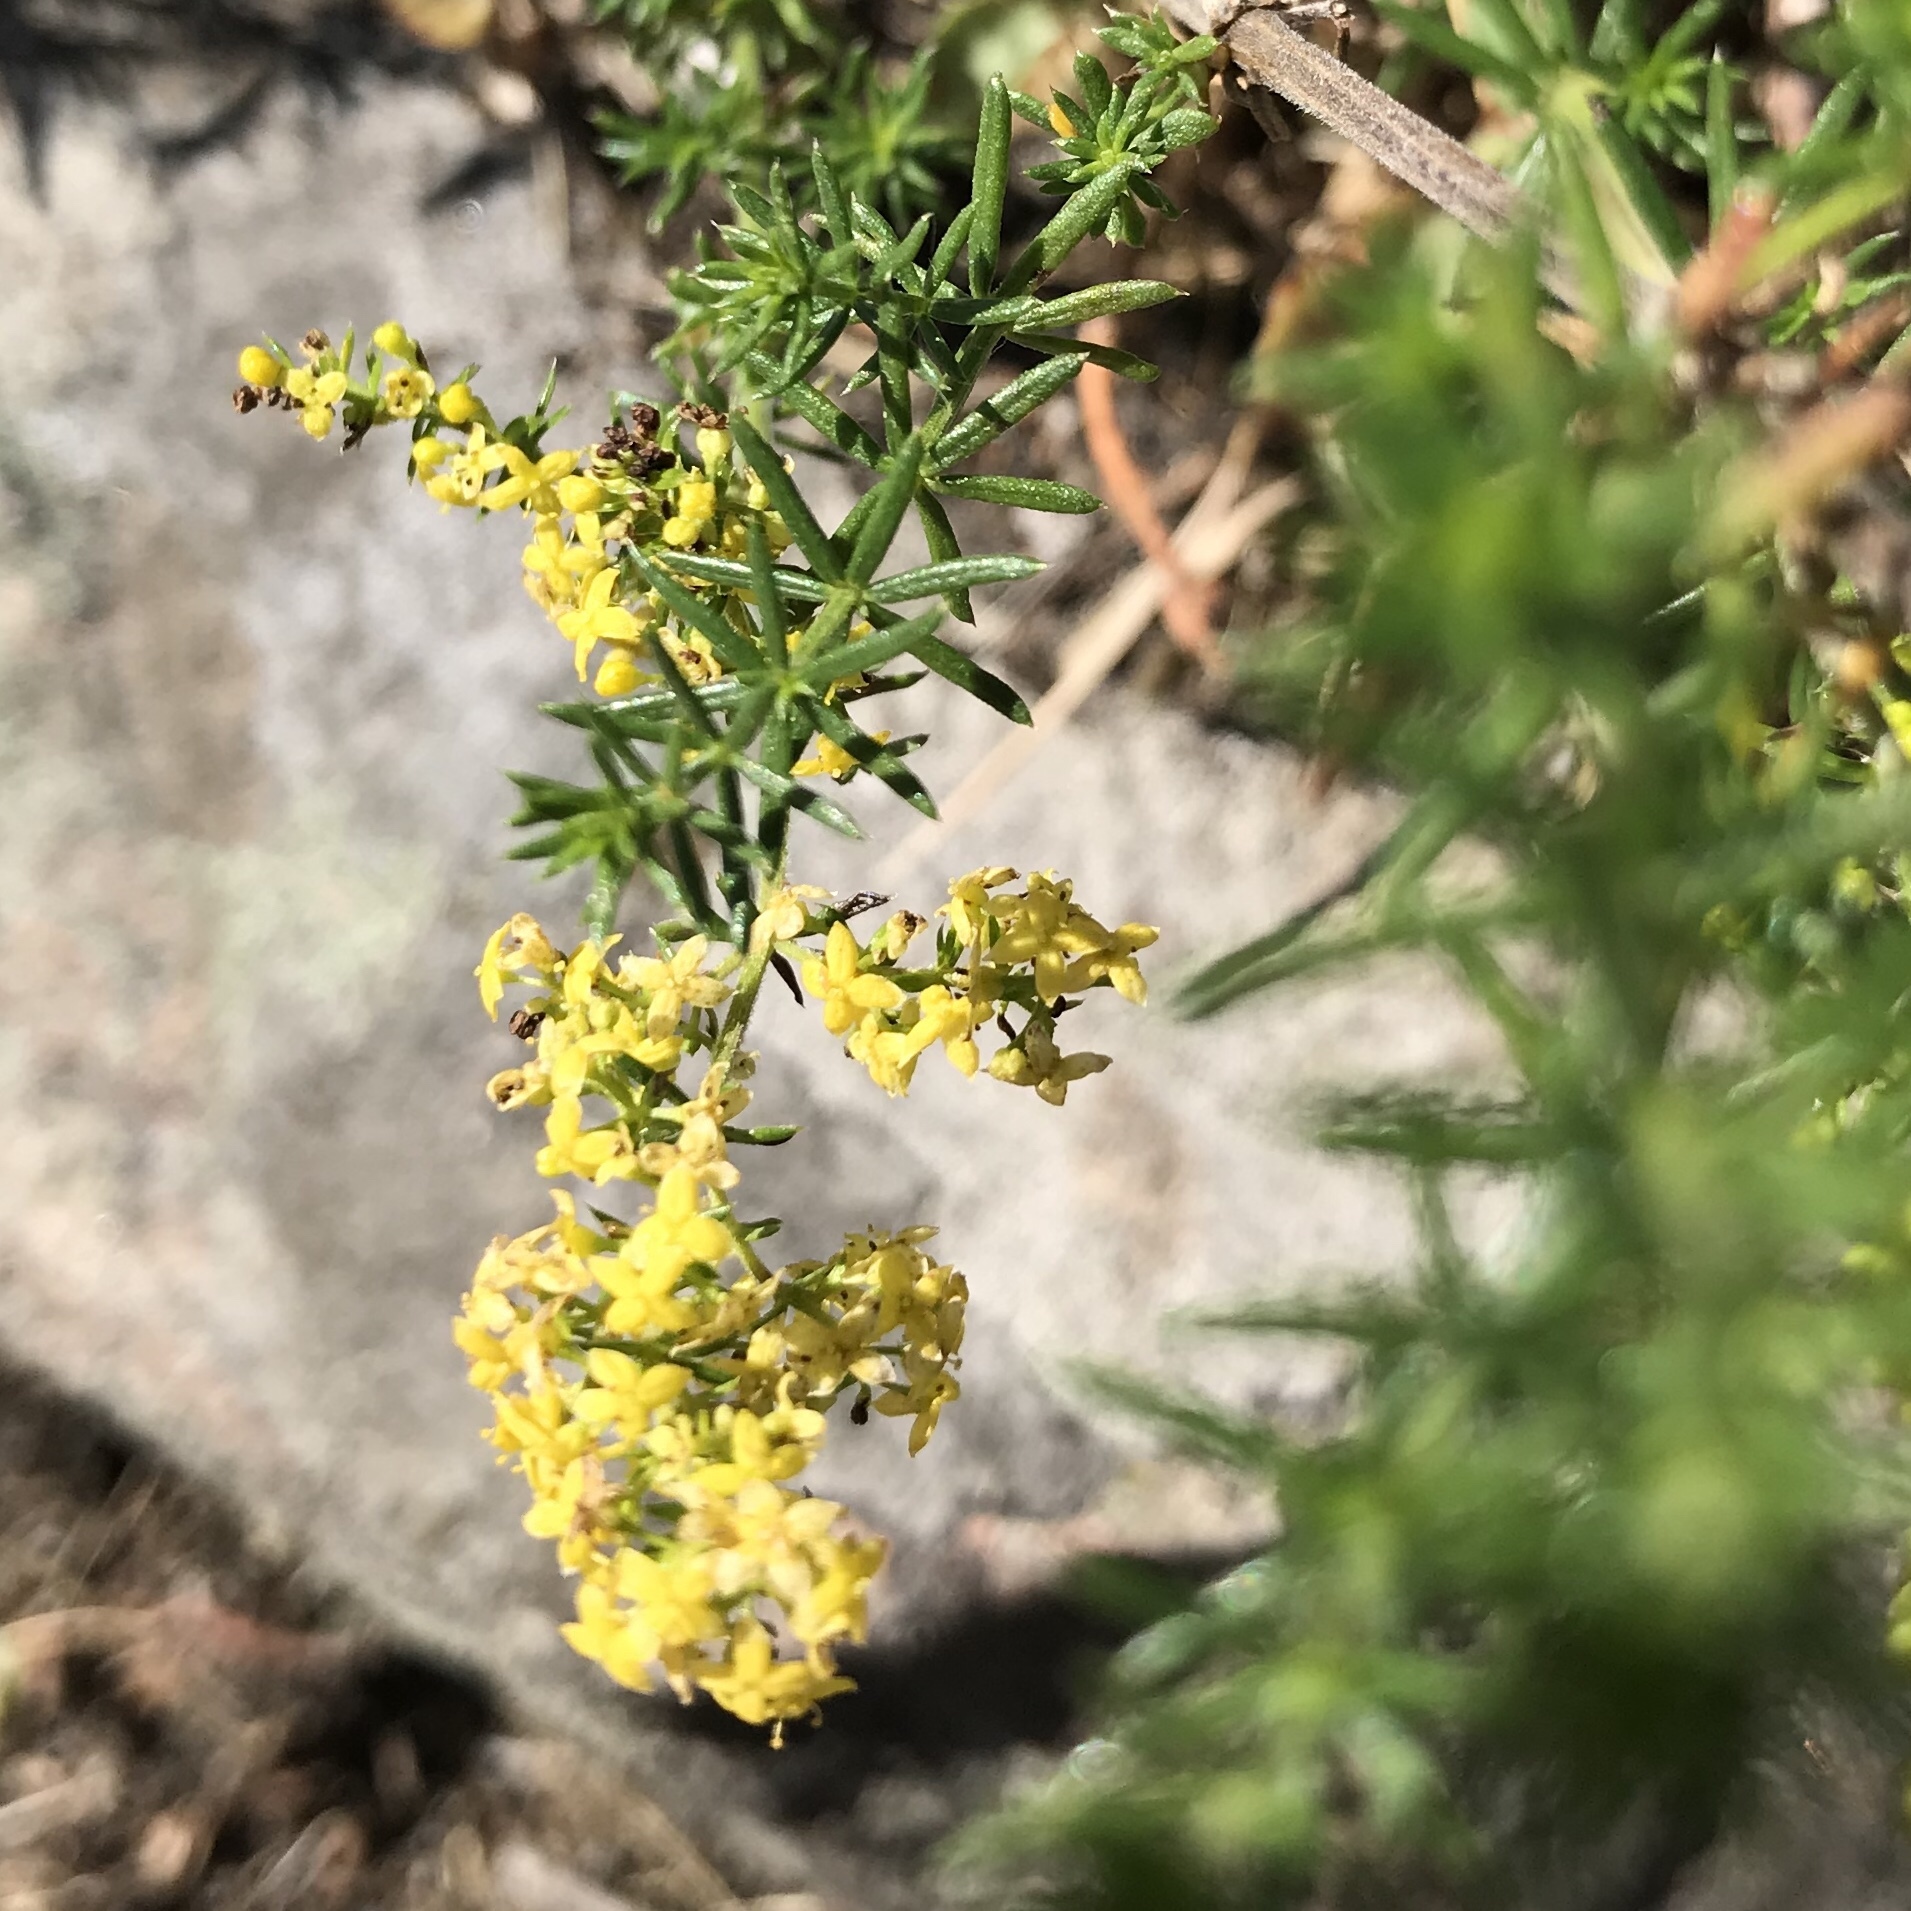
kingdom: Plantae
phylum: Tracheophyta
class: Magnoliopsida
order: Gentianales
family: Rubiaceae
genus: Galium
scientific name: Galium verum
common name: Lady's bedstraw
